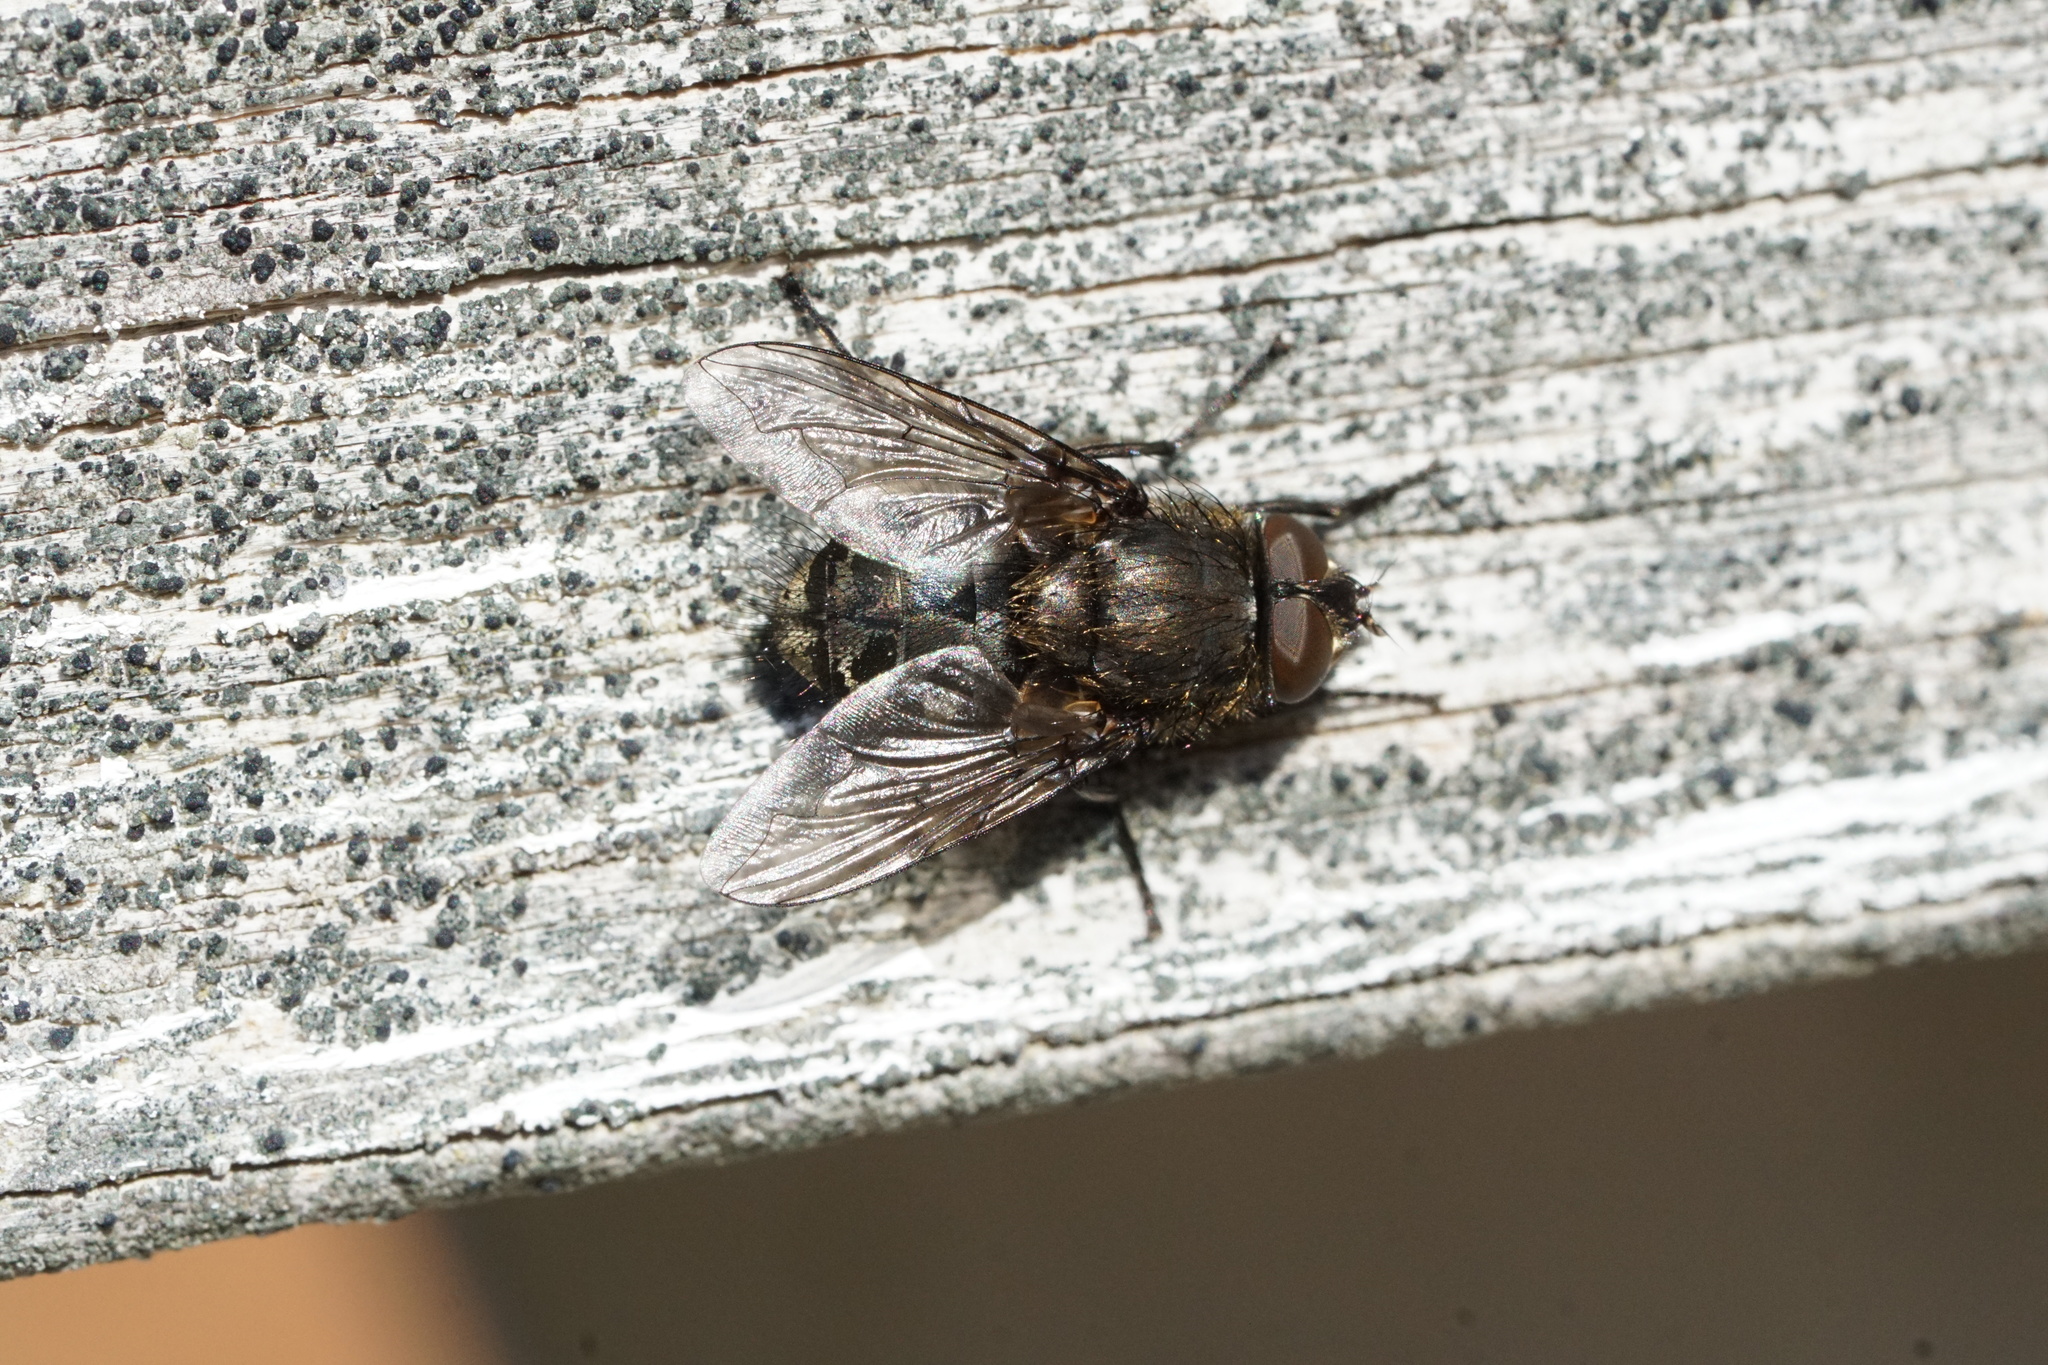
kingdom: Animalia
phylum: Arthropoda
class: Insecta
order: Diptera
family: Polleniidae
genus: Pollenia
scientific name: Pollenia
